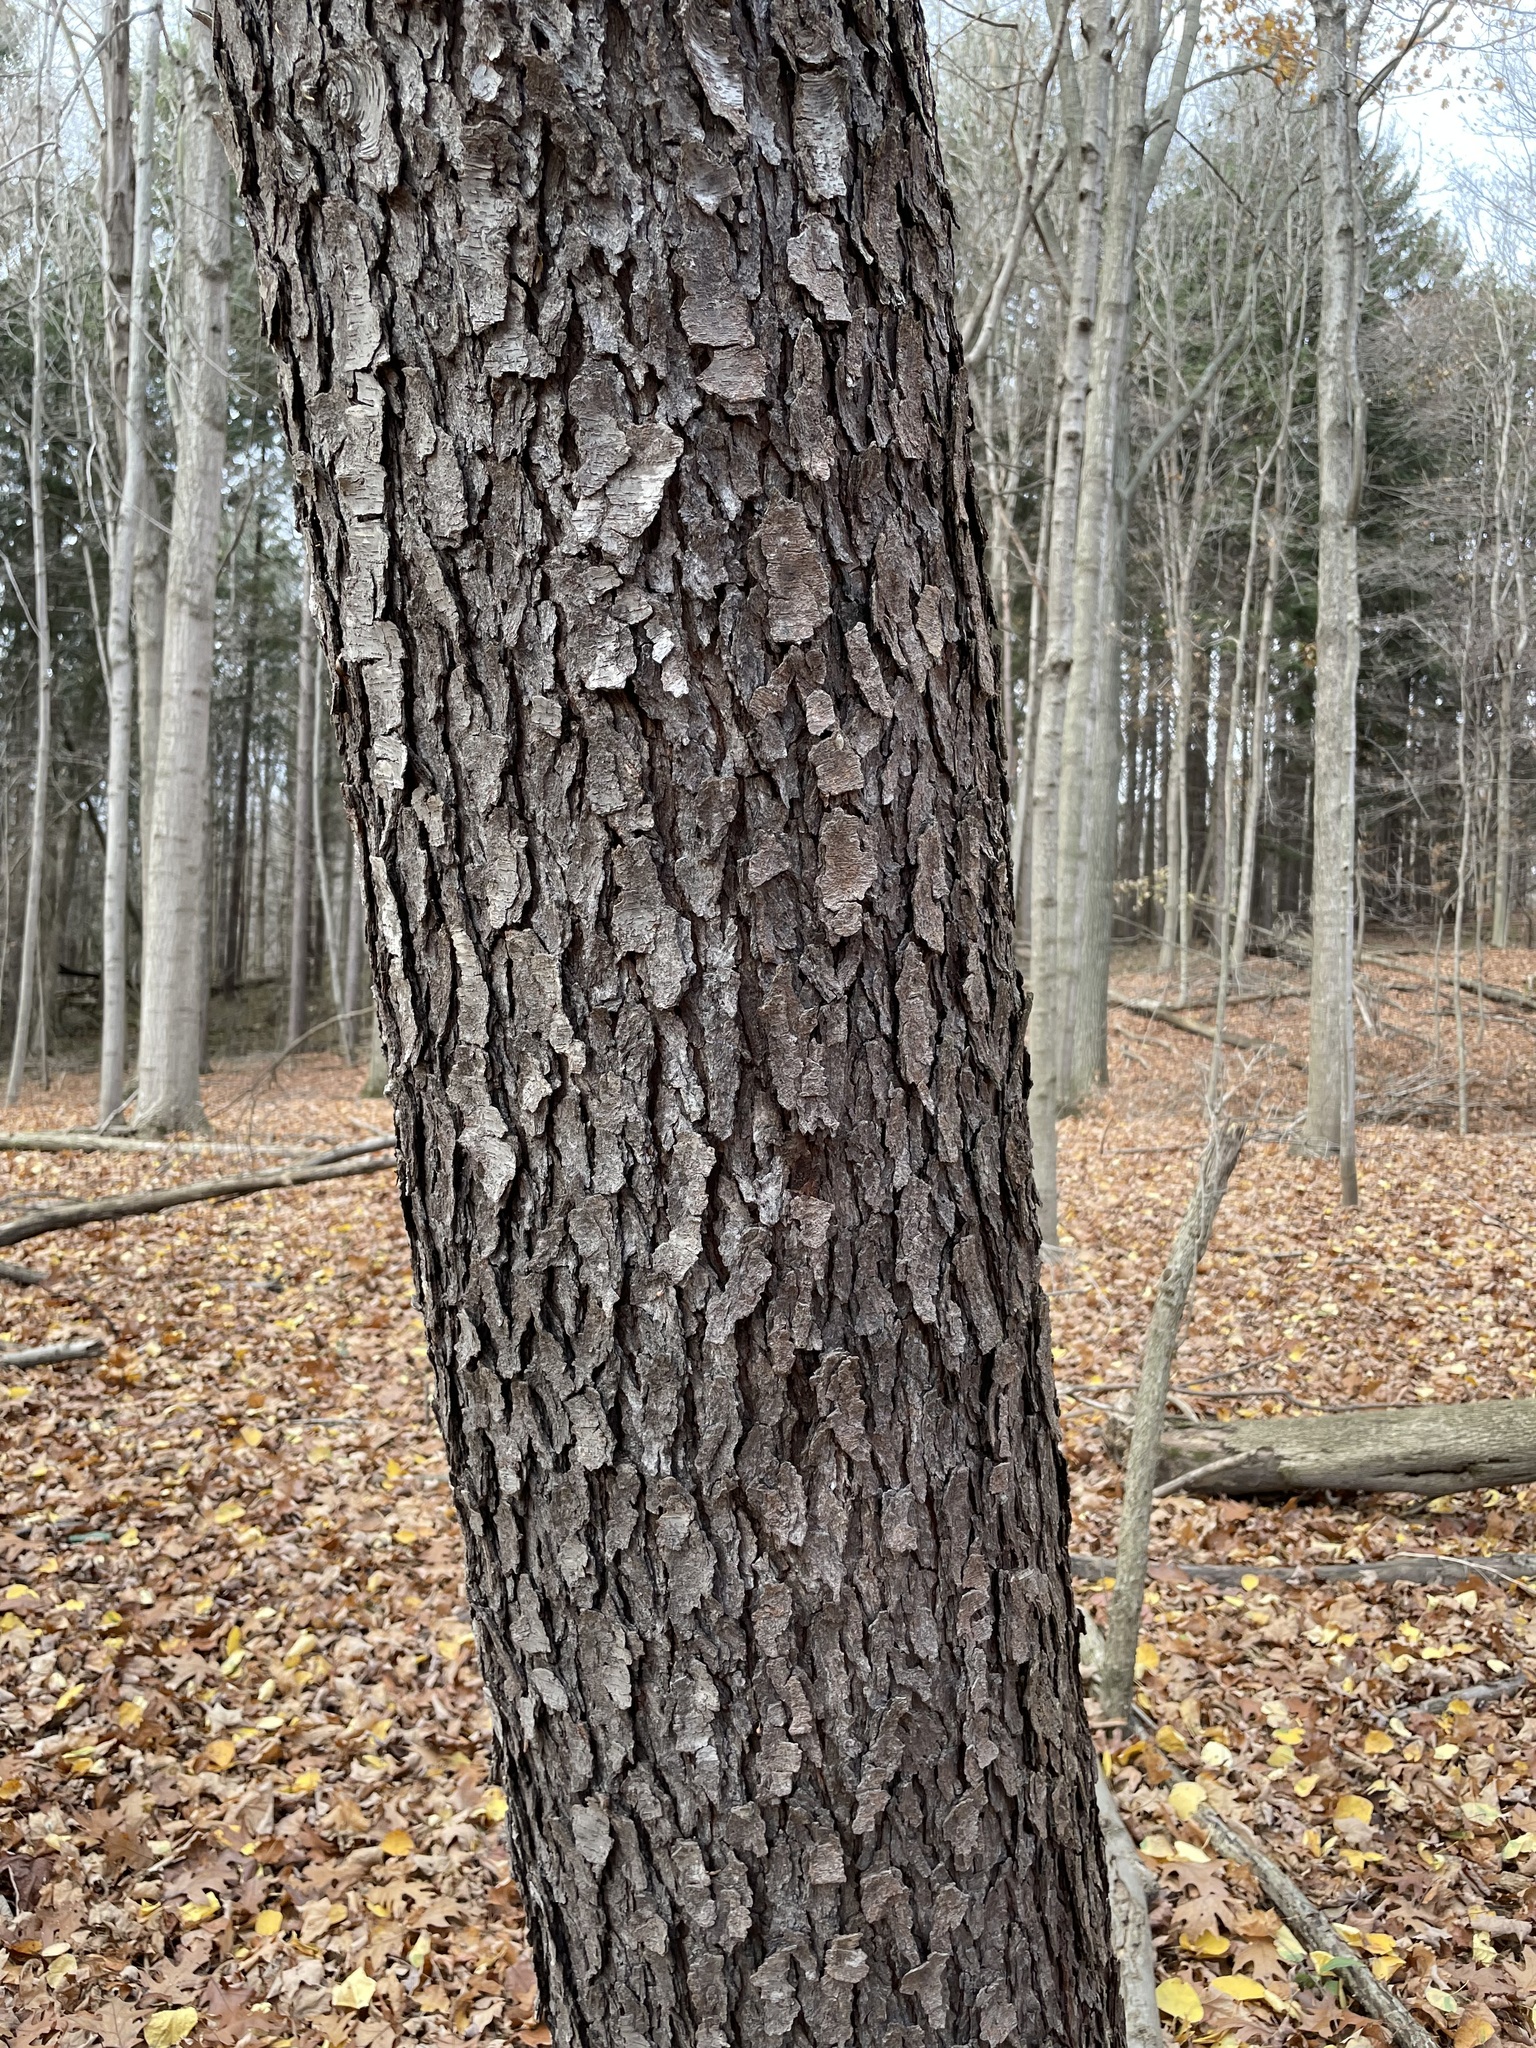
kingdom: Plantae
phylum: Tracheophyta
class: Magnoliopsida
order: Rosales
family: Rosaceae
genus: Prunus
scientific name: Prunus serotina
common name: Black cherry
